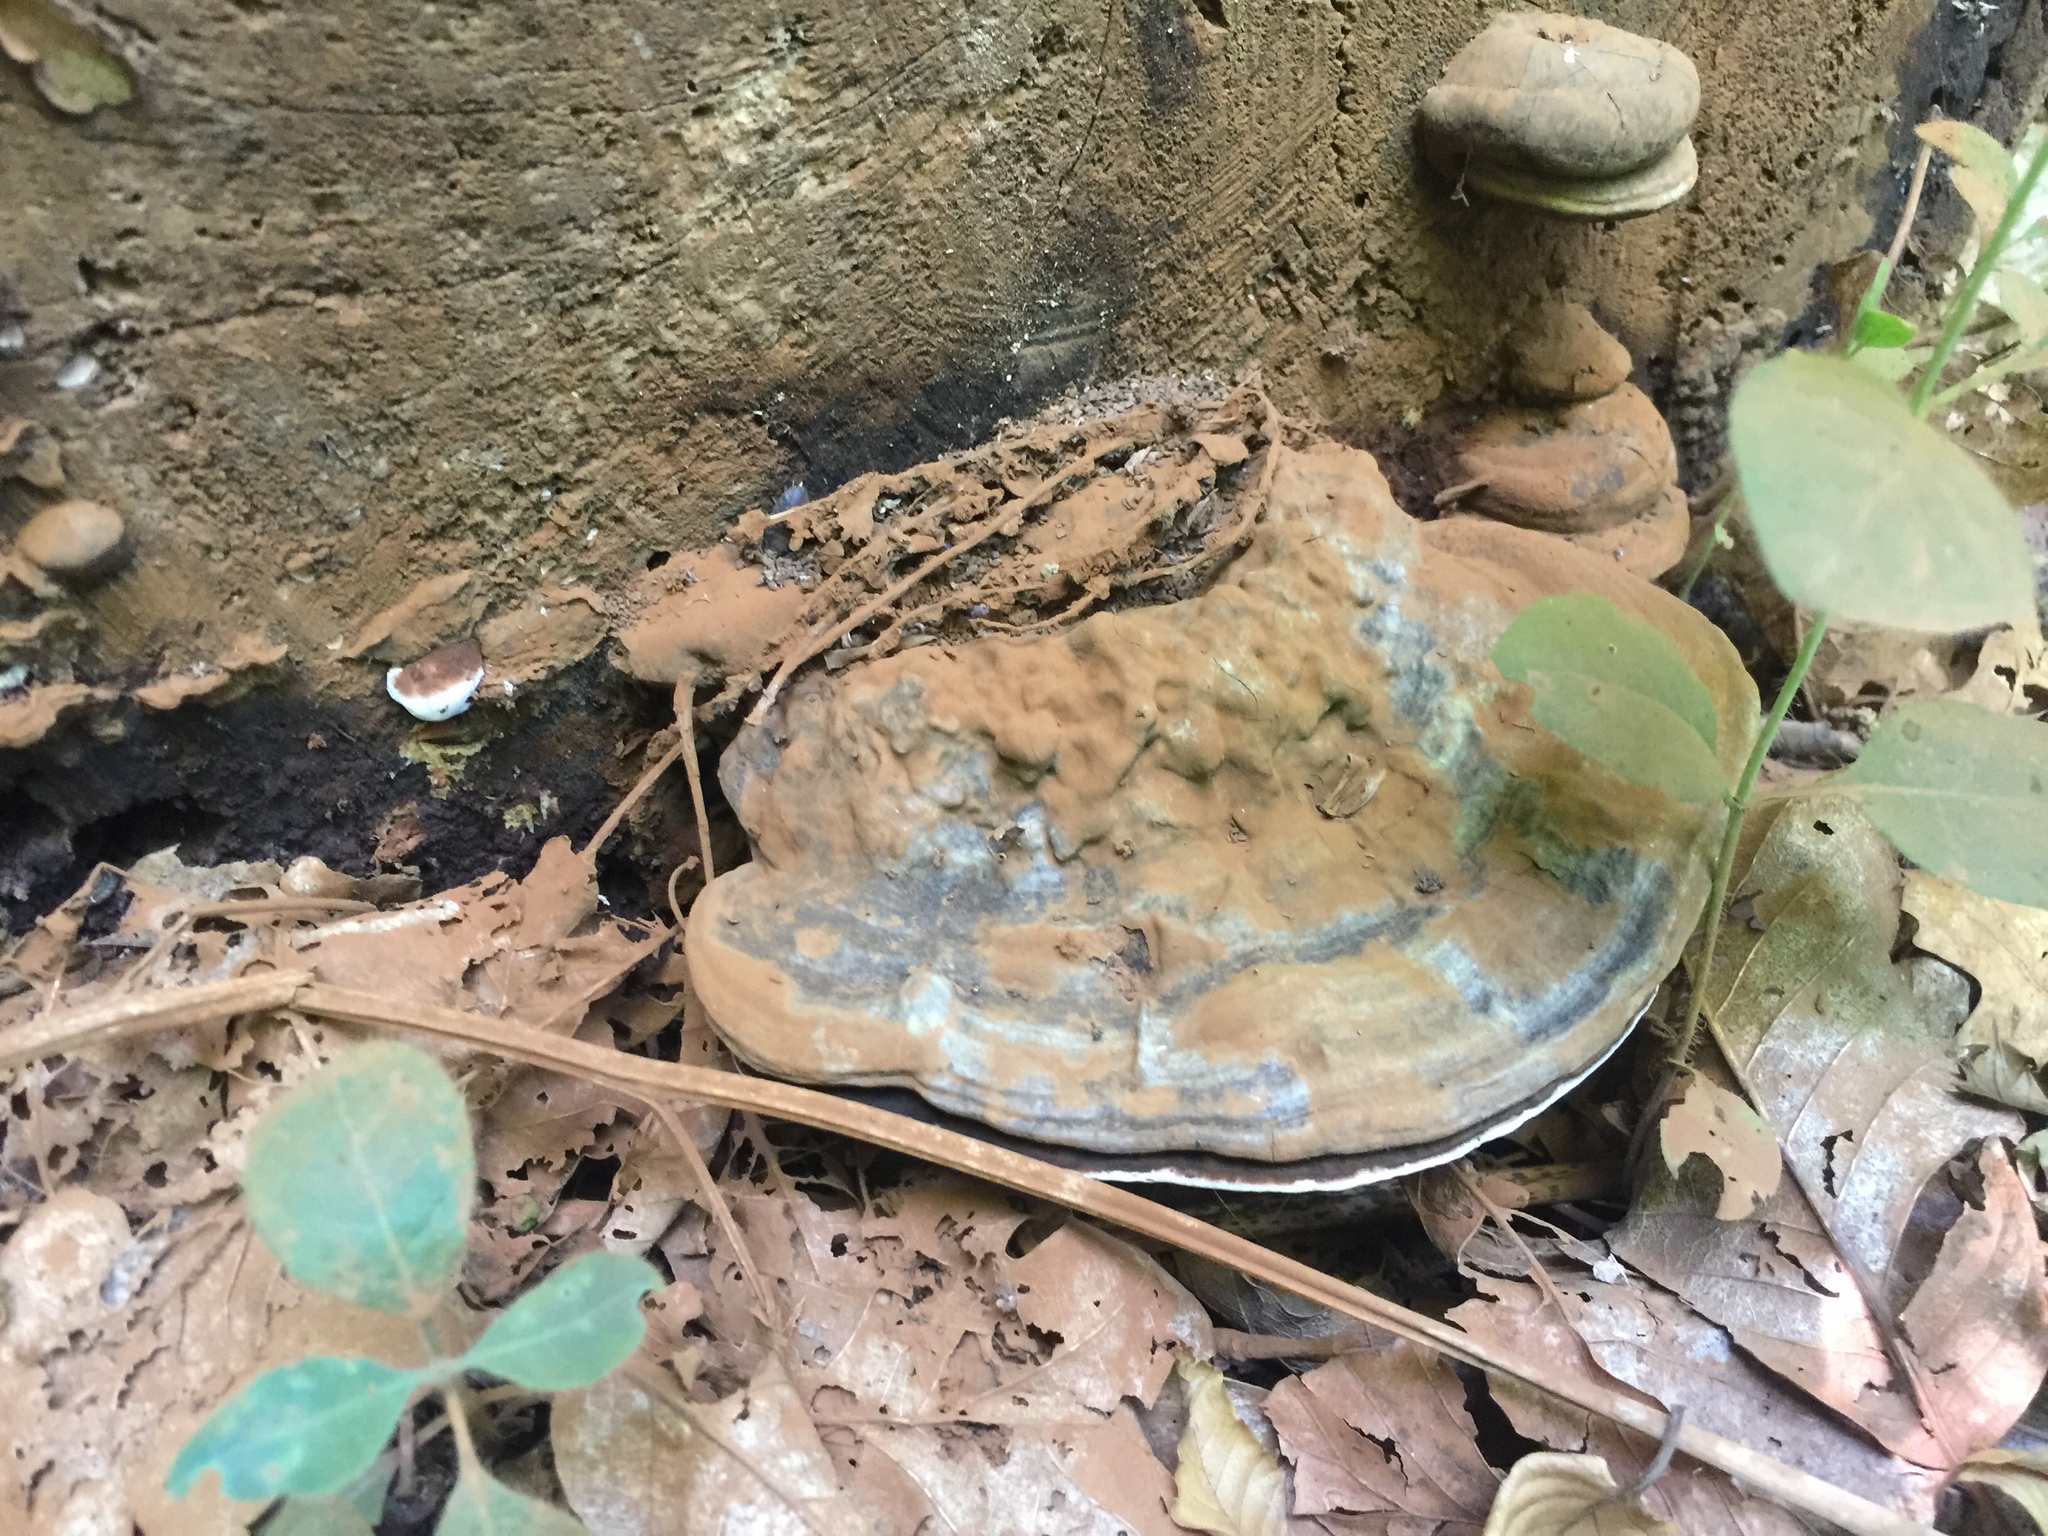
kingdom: Fungi
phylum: Basidiomycota
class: Agaricomycetes
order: Polyporales
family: Polyporaceae
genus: Ganoderma
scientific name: Ganoderma applanatum
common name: Artist's bracket
